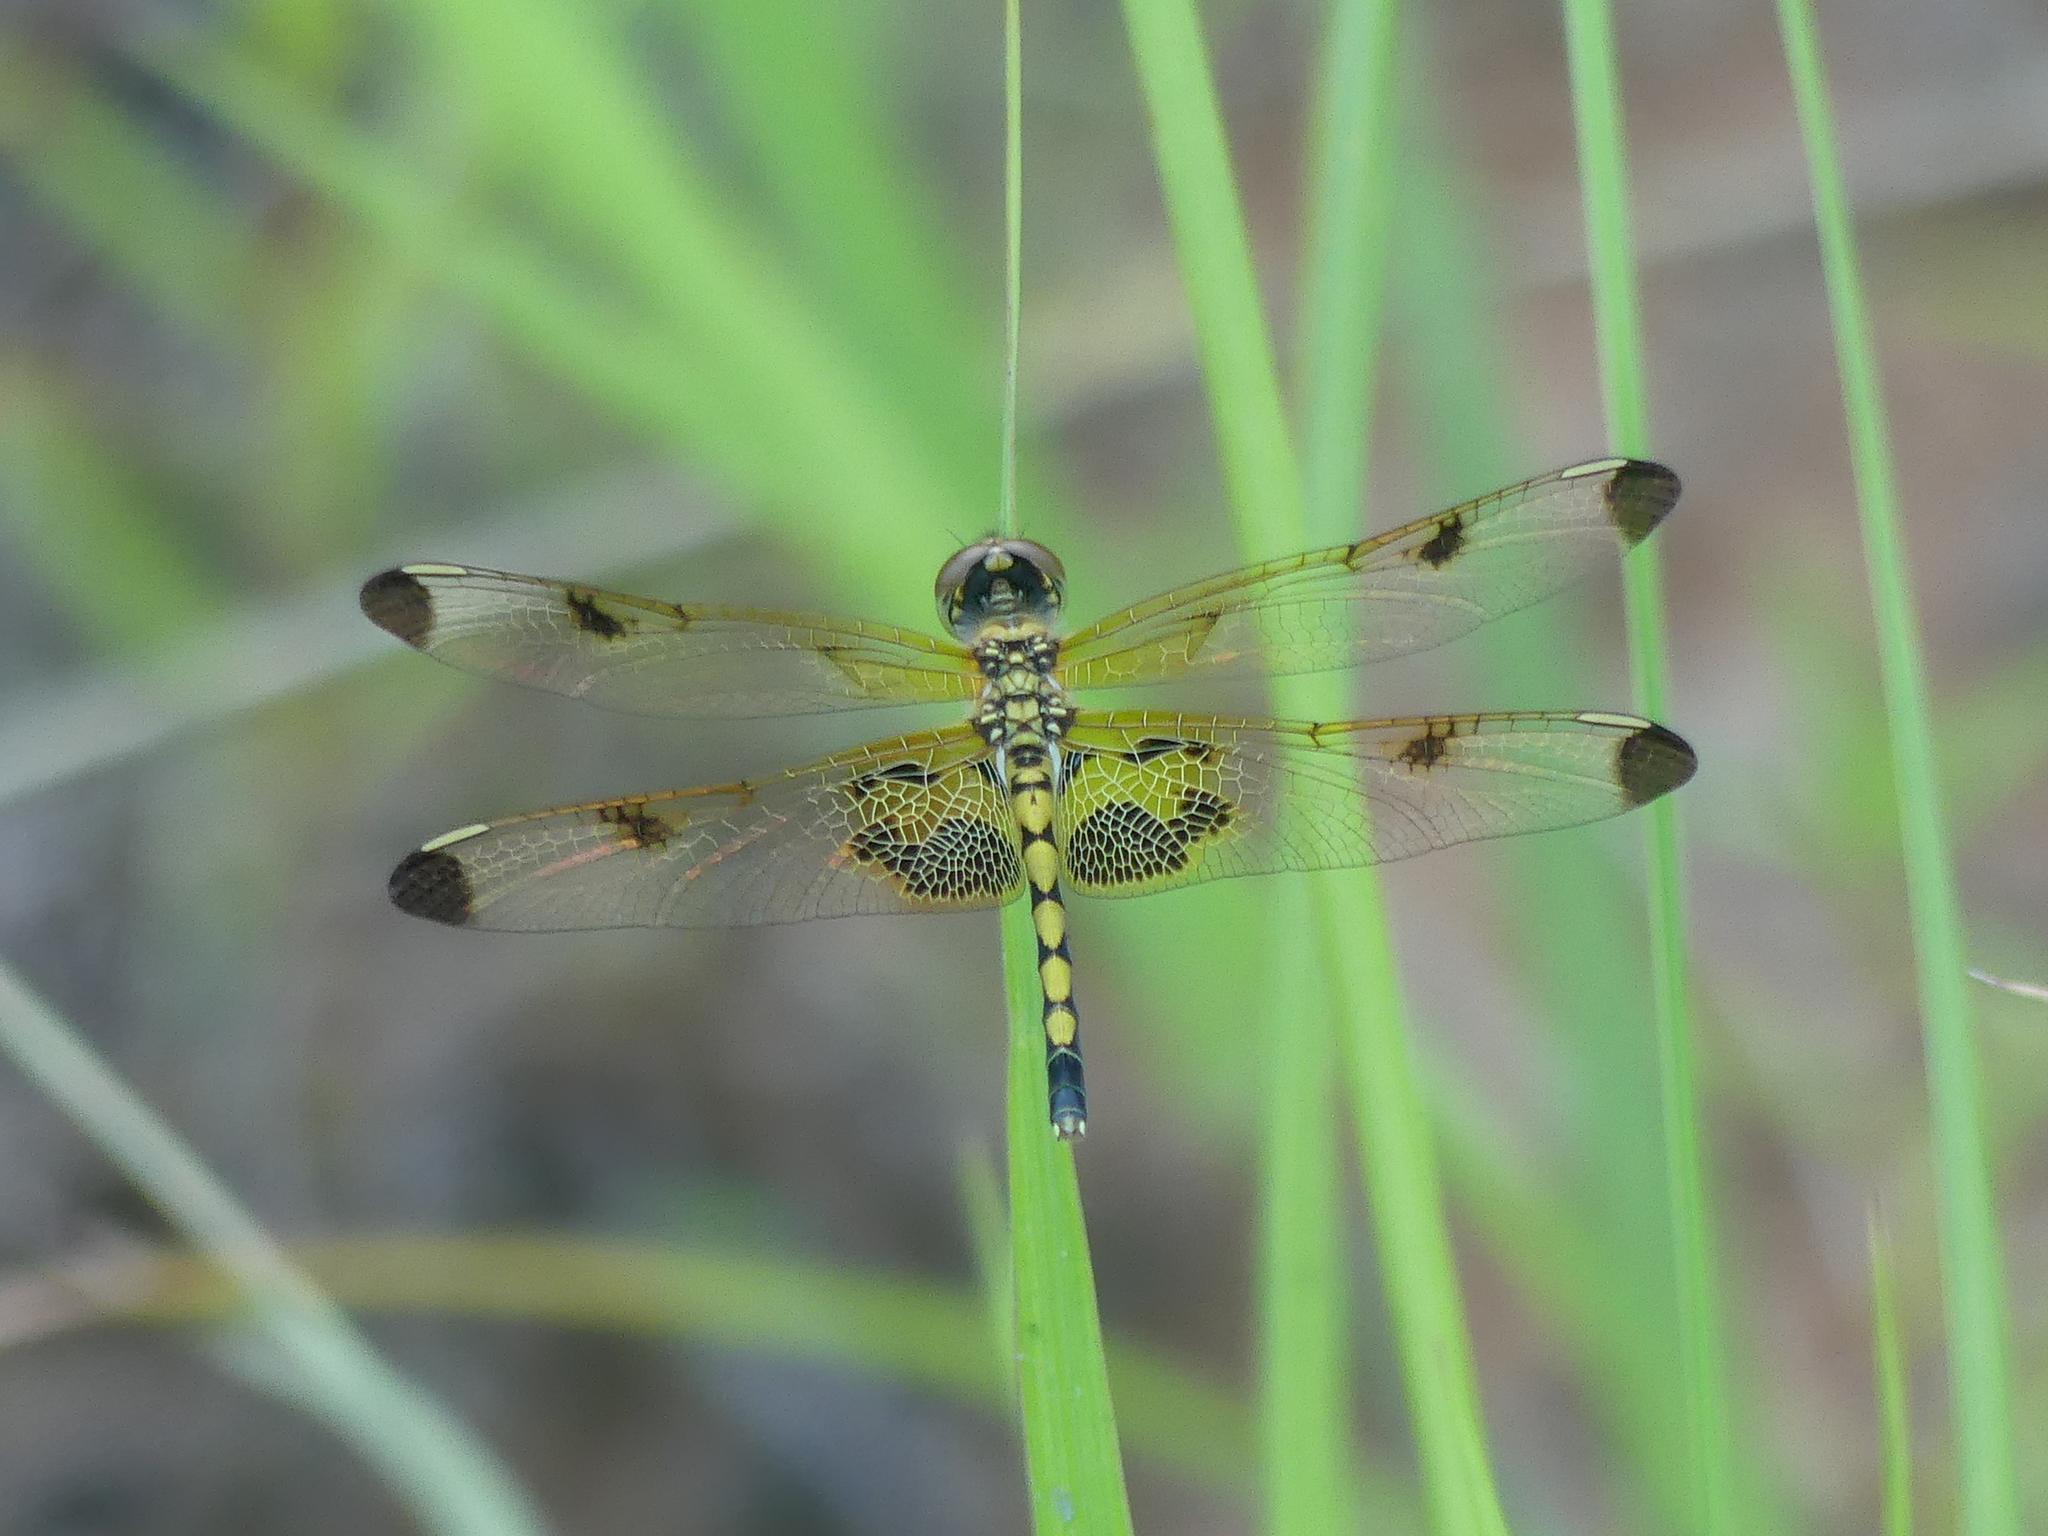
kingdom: Animalia
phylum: Arthropoda
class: Insecta
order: Odonata
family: Libellulidae
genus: Celithemis
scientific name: Celithemis elisa
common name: Calico pennant
